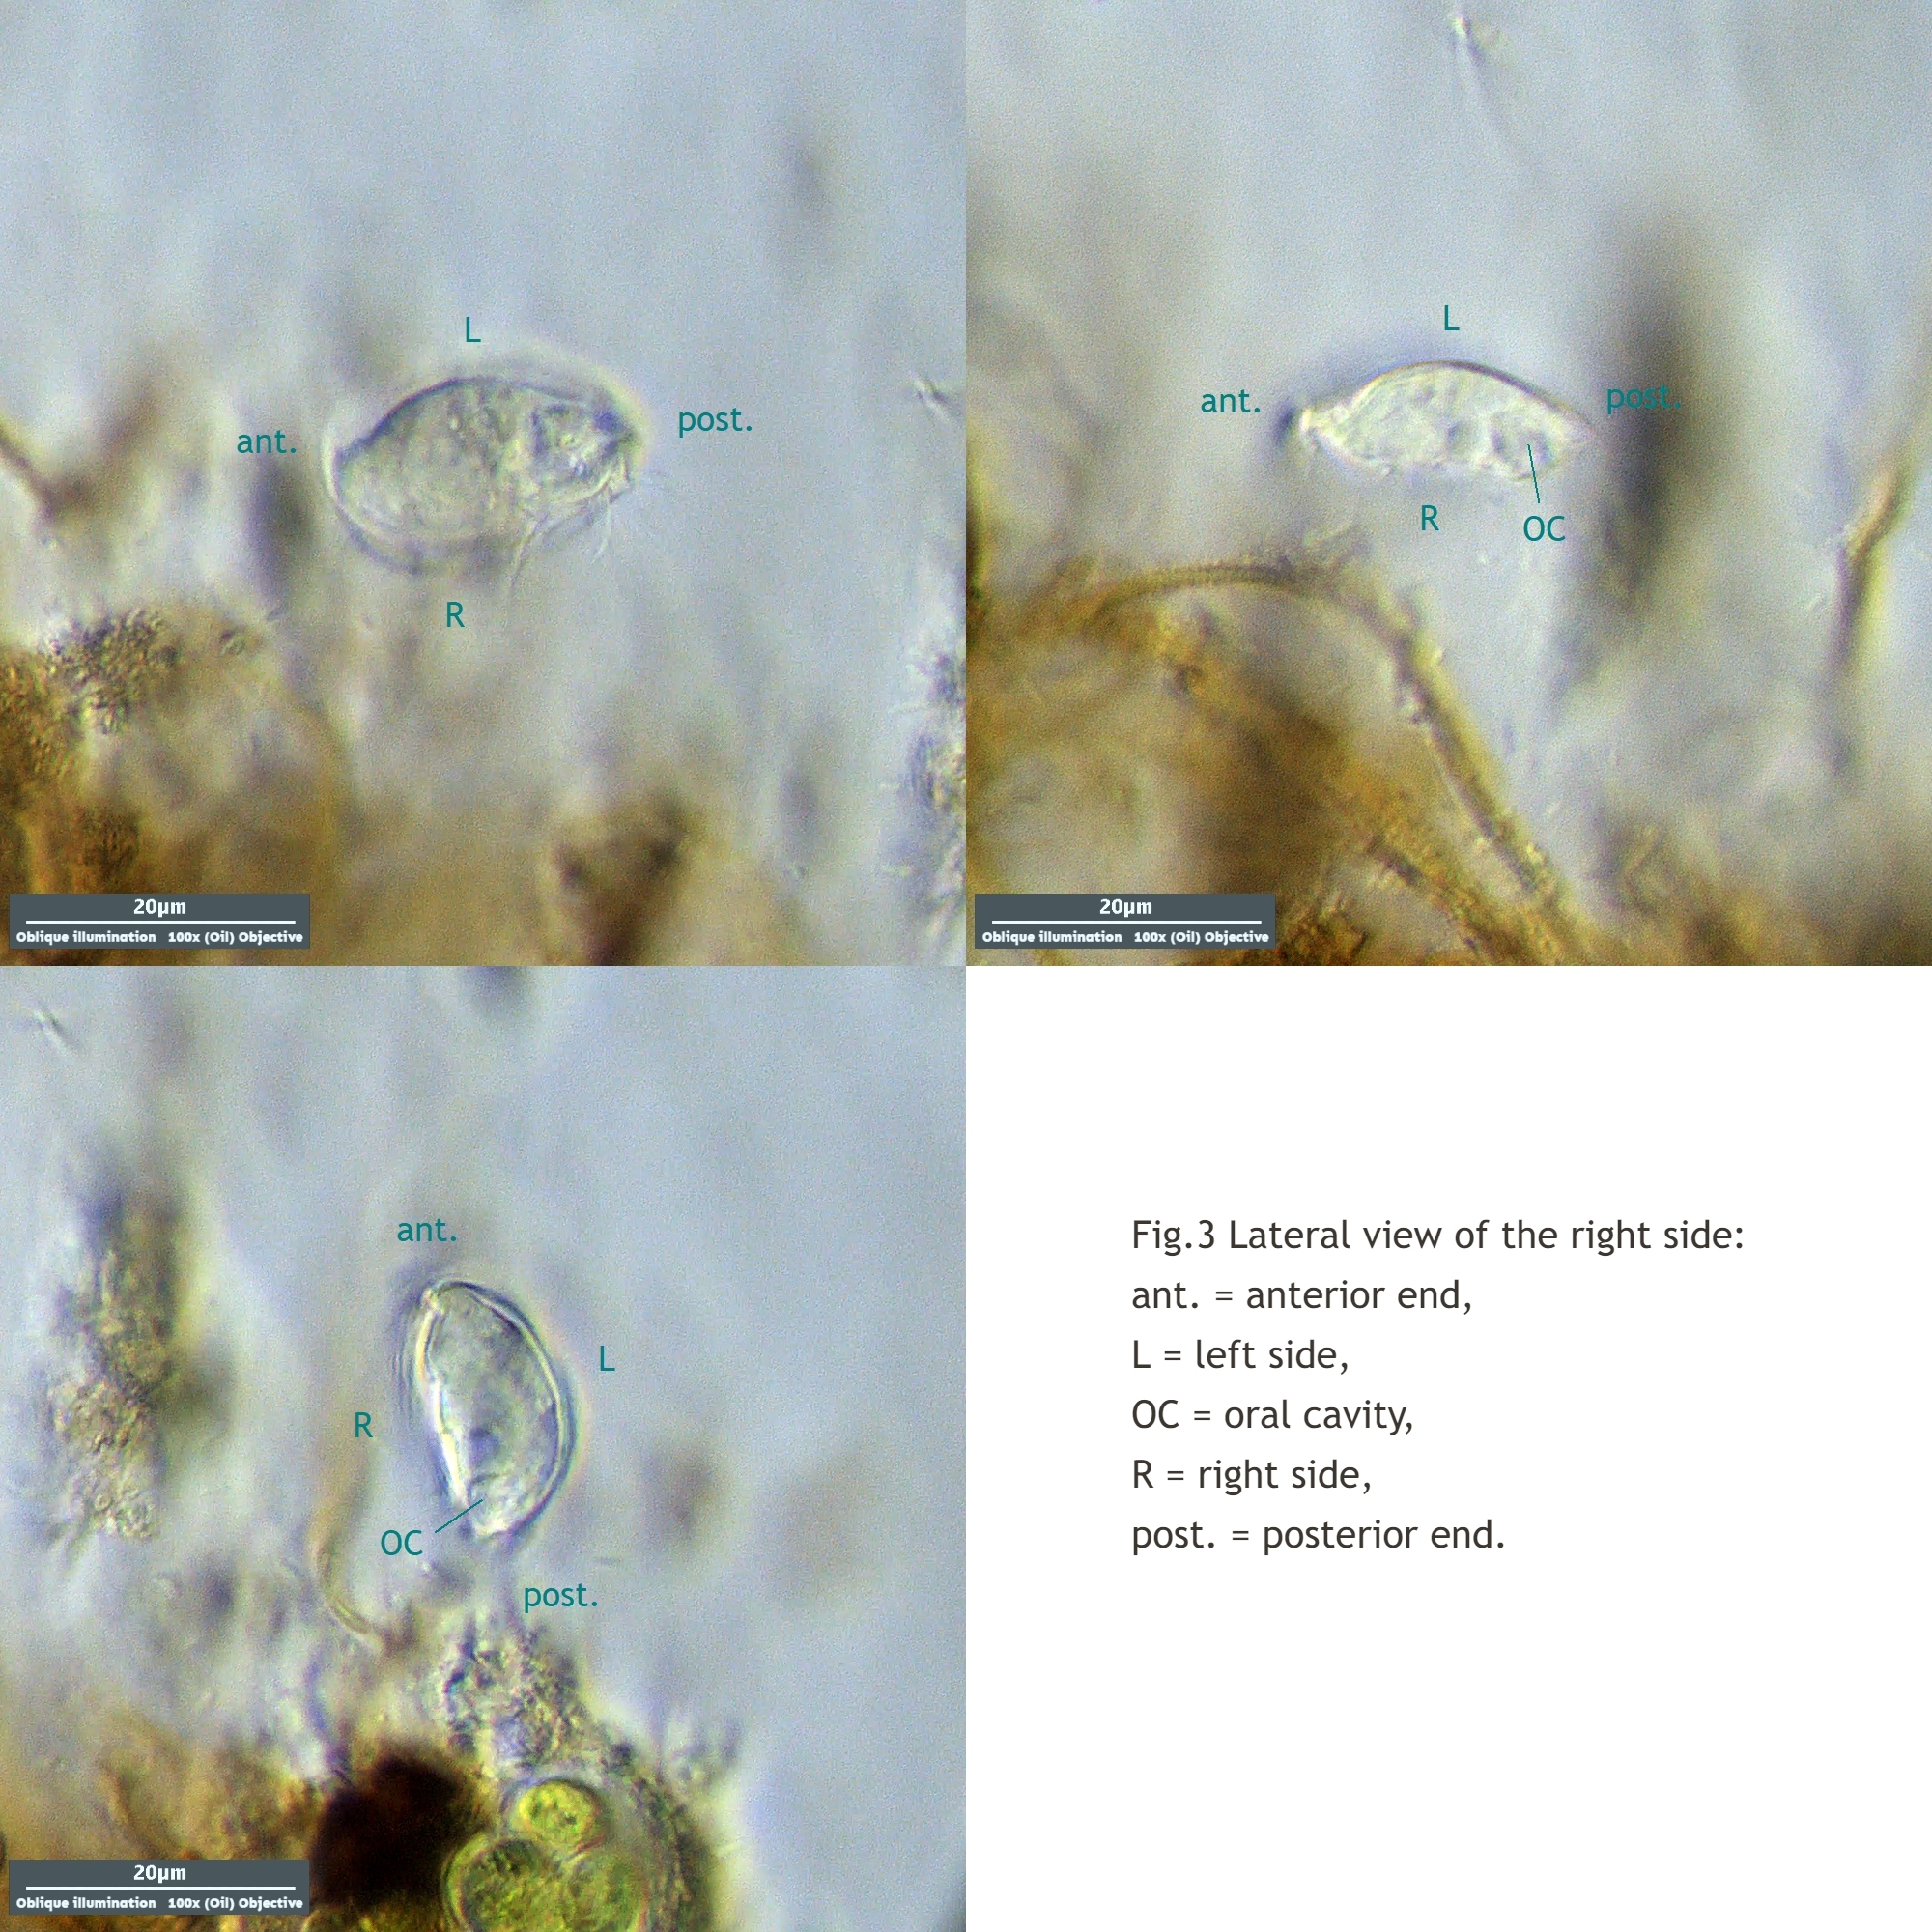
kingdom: Chromista
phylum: Ciliophora
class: Nassophorea
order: Nassulida
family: Microthoracidae
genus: Microthorax
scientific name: Microthorax bidentatus
